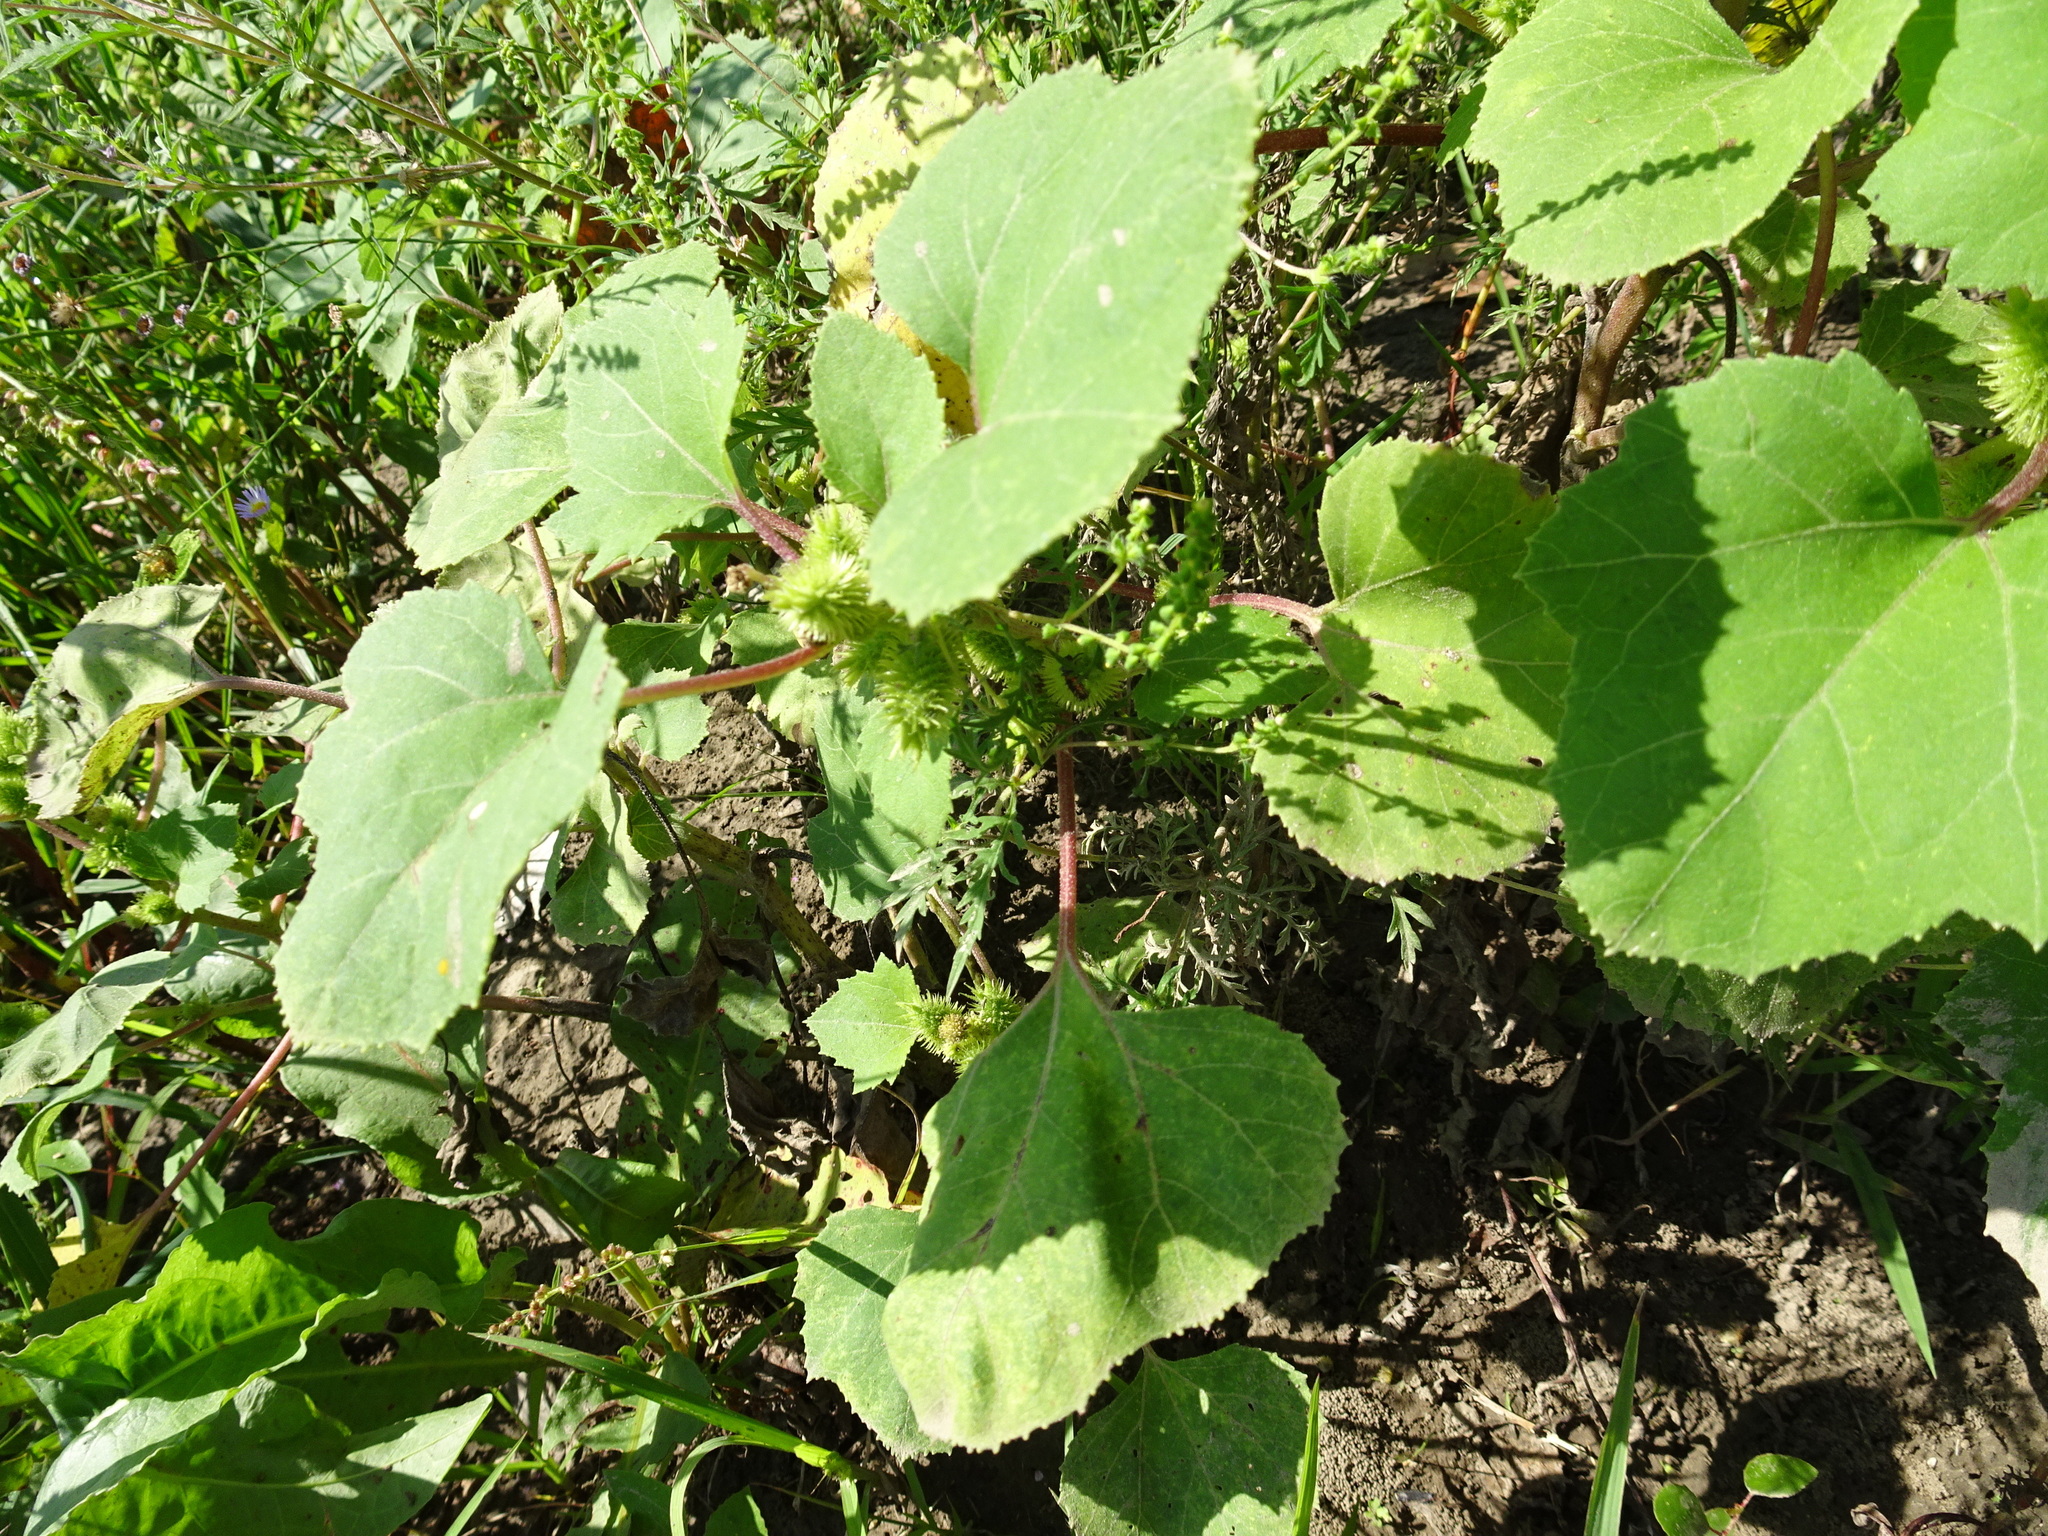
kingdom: Plantae
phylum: Tracheophyta
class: Magnoliopsida
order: Asterales
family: Asteraceae
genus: Xanthium
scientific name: Xanthium strumarium
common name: Rough cocklebur
